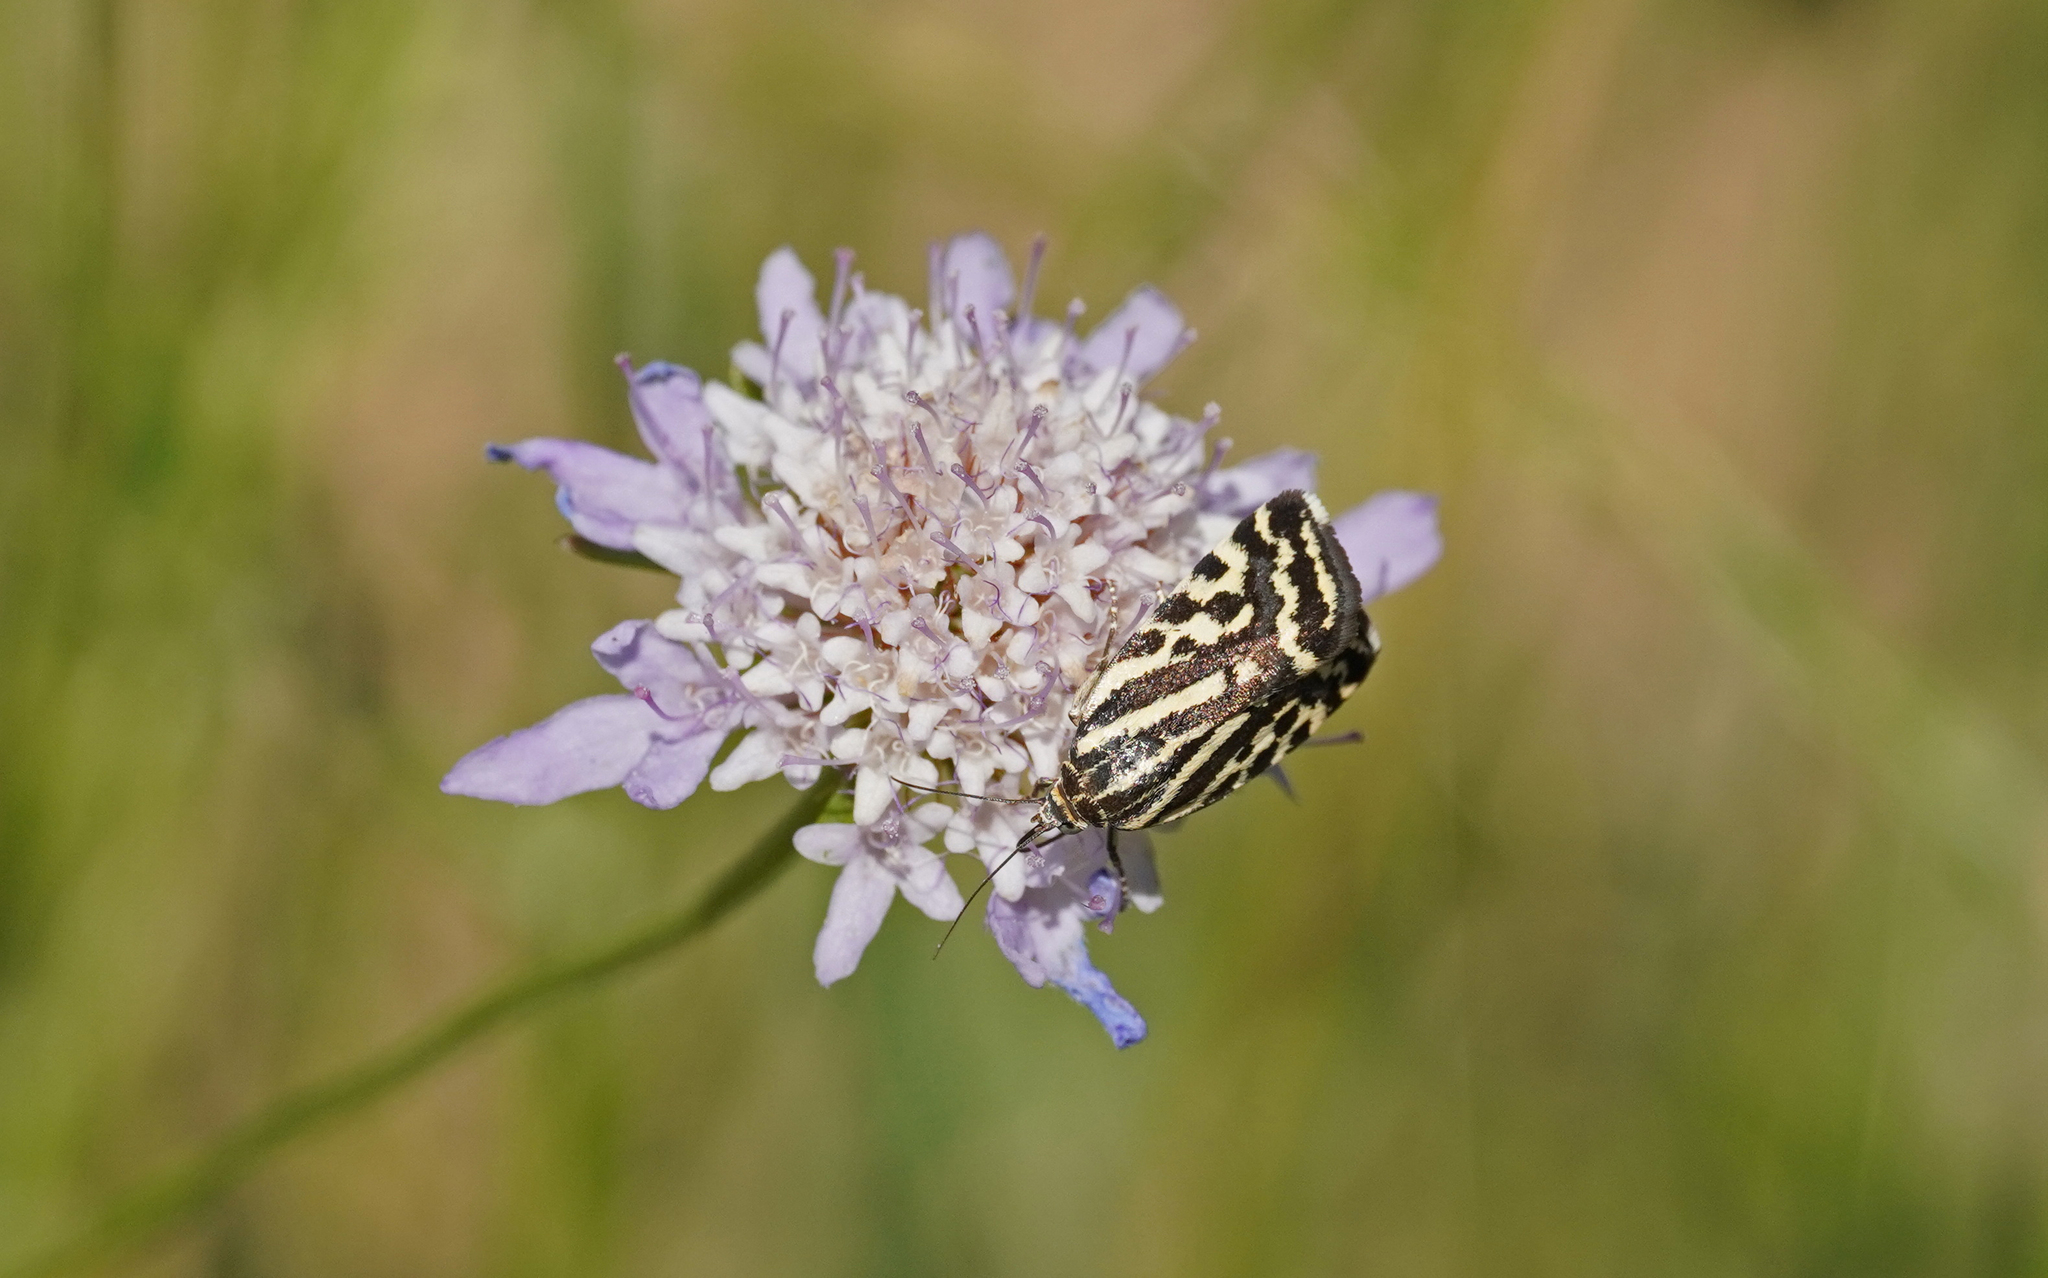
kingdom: Animalia
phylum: Arthropoda
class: Insecta
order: Lepidoptera
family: Noctuidae
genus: Acontia
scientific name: Acontia trabealis
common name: Spotted sulphur
